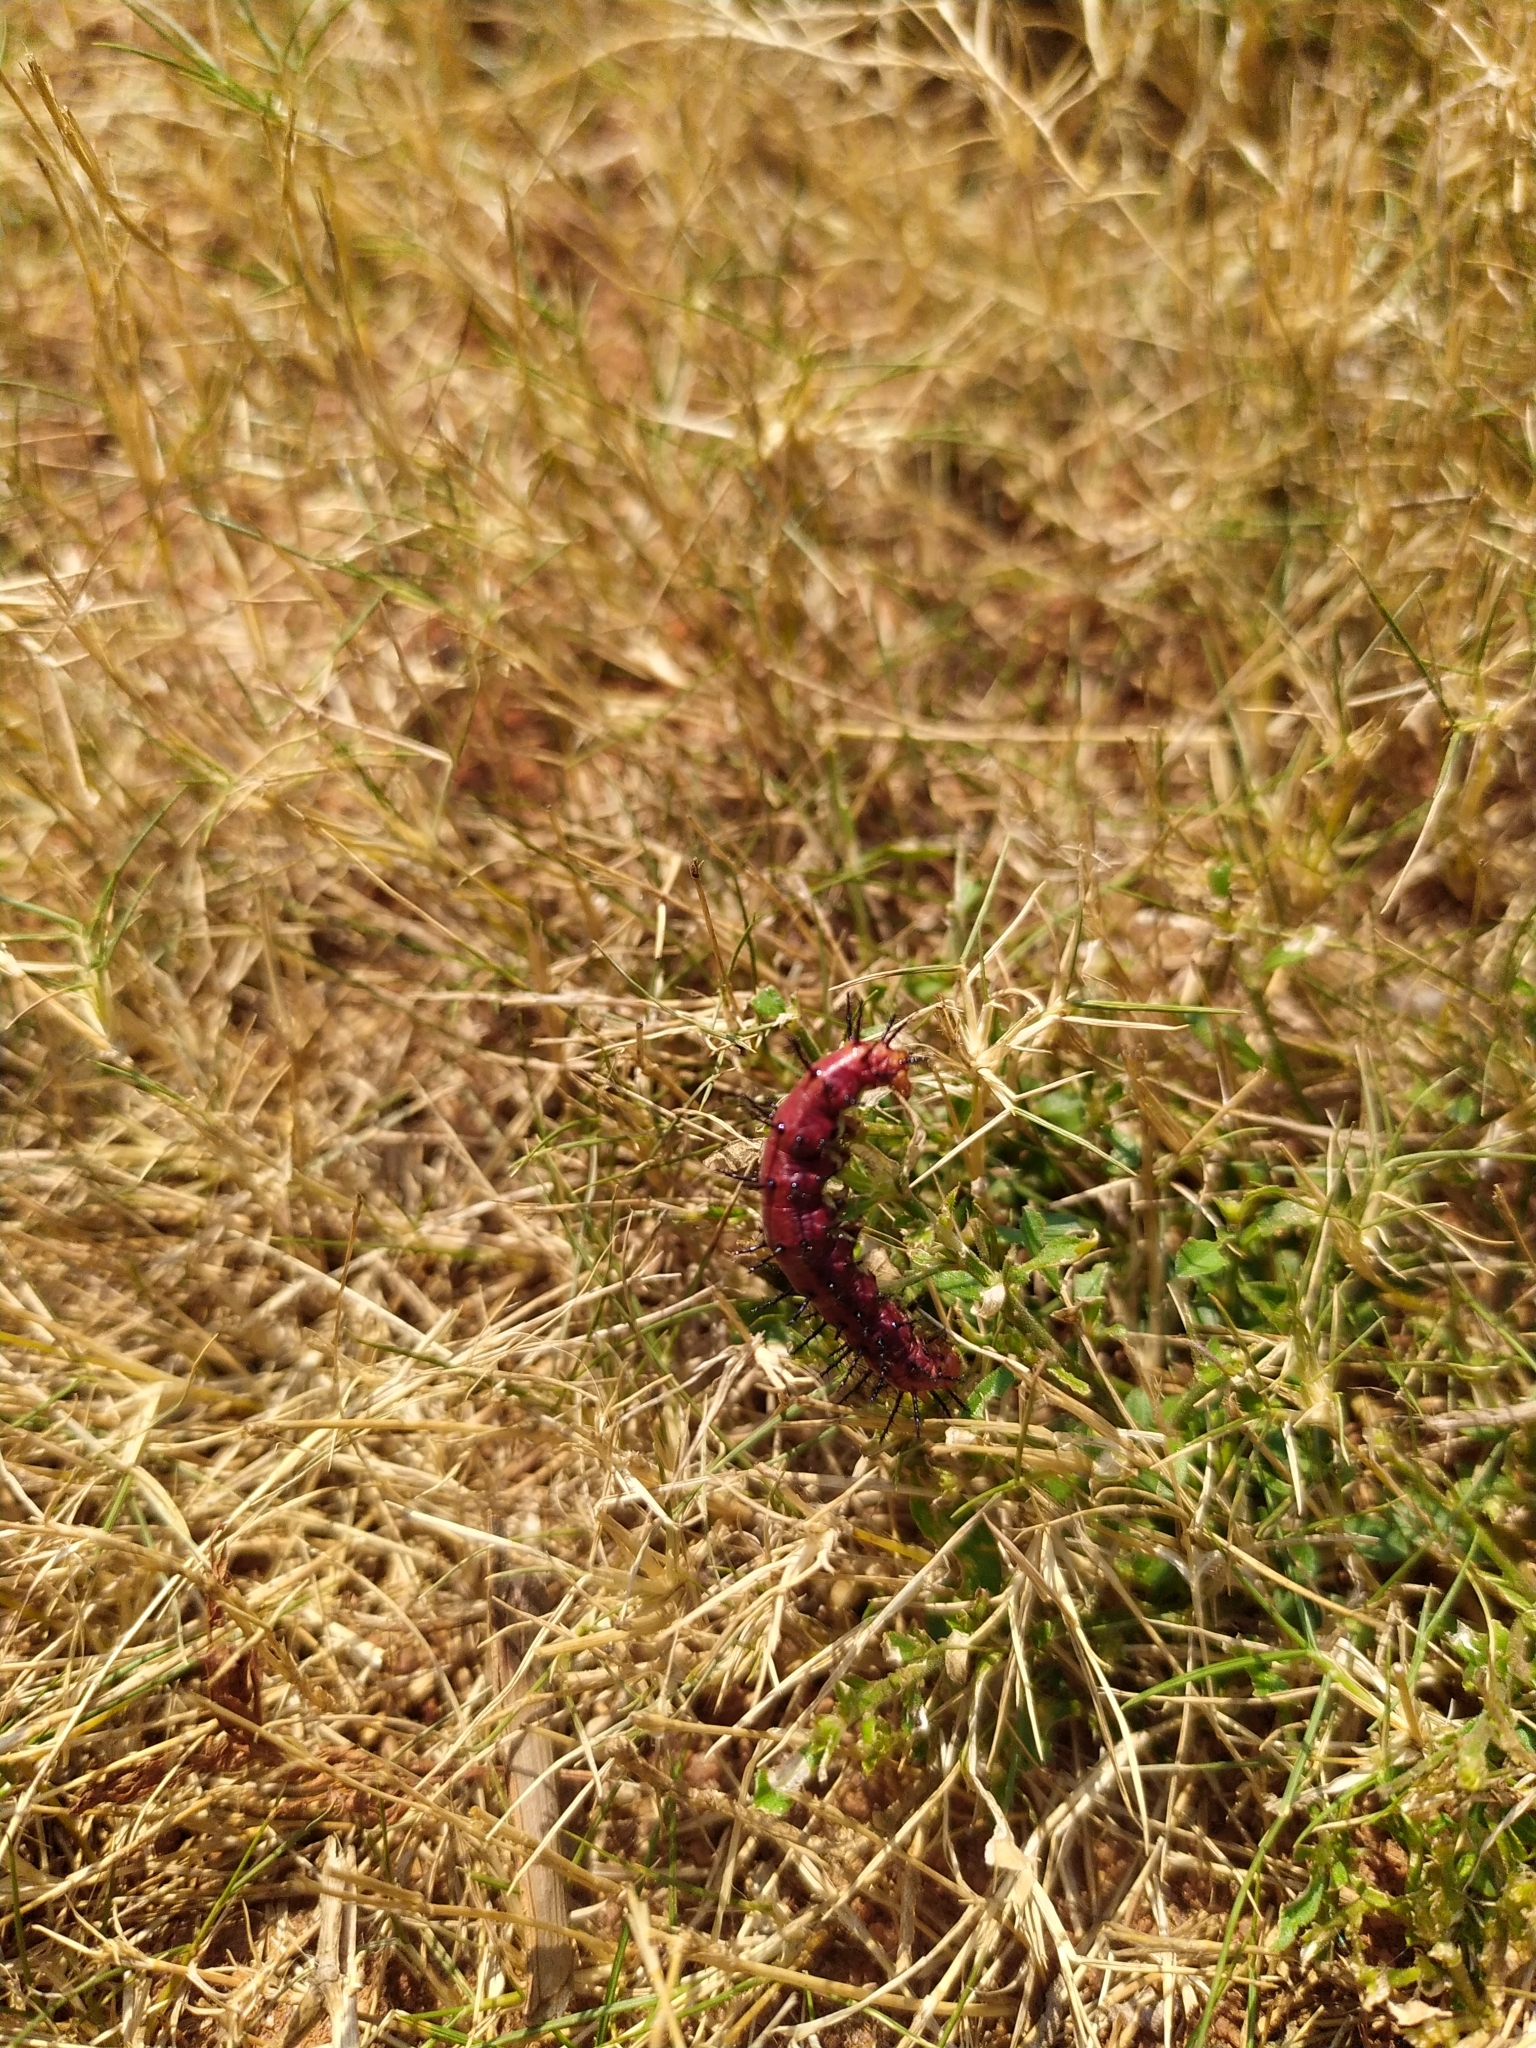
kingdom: Animalia
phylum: Arthropoda
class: Insecta
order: Lepidoptera
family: Nymphalidae
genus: Acraea
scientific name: Acraea terpsicore
